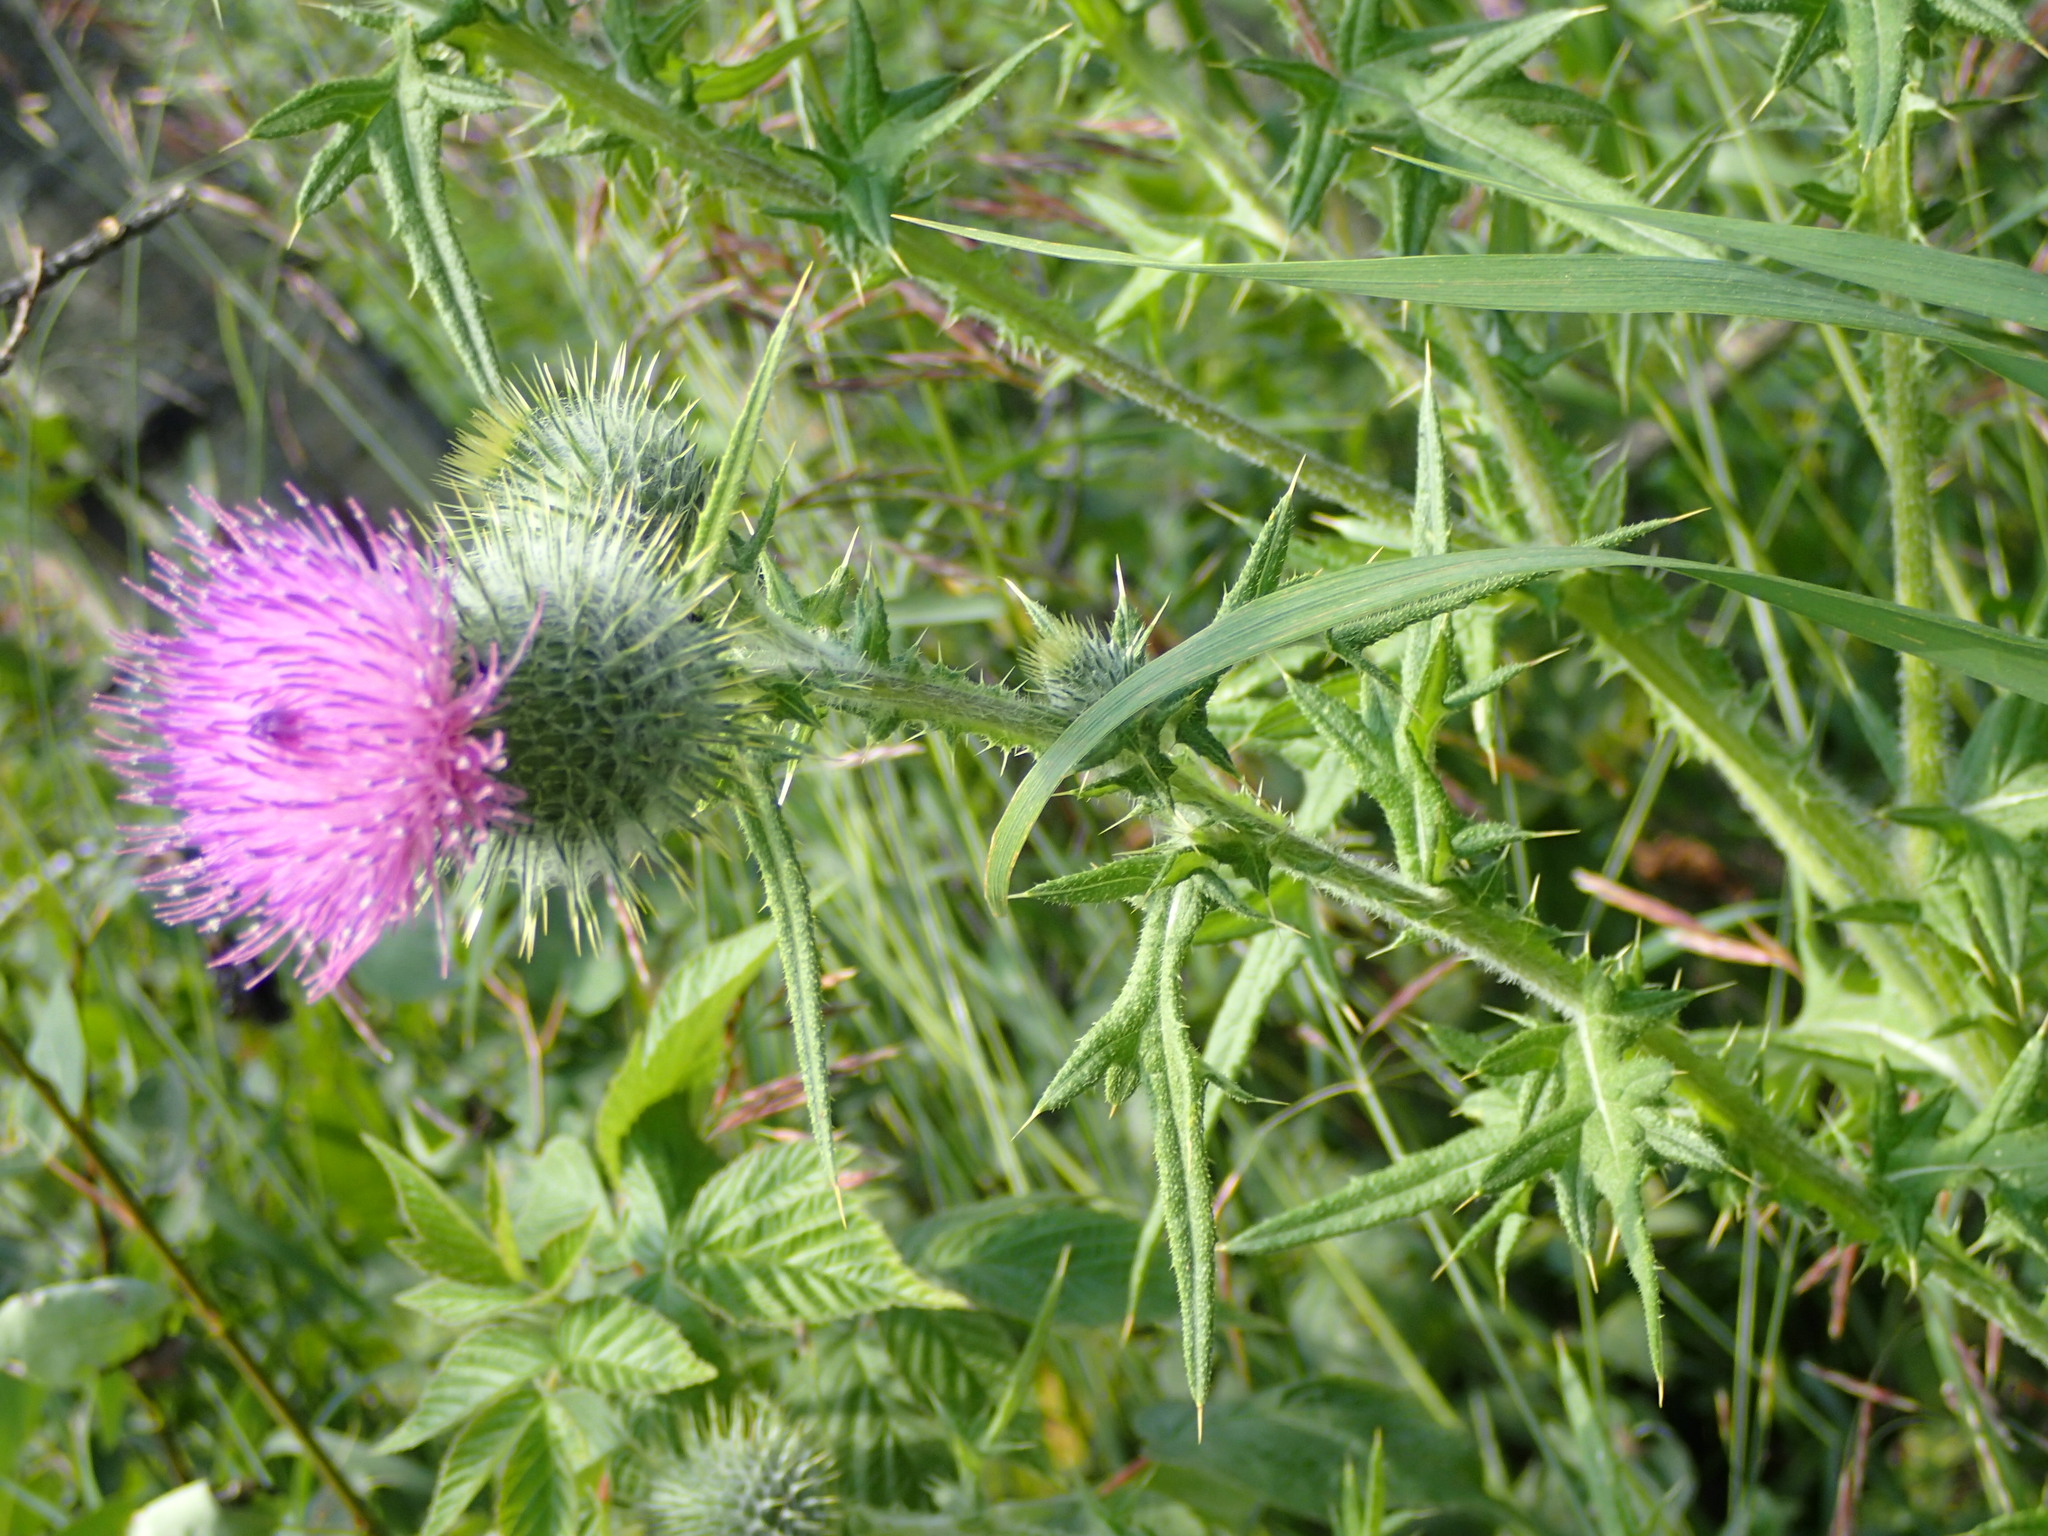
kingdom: Plantae
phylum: Tracheophyta
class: Magnoliopsida
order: Asterales
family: Asteraceae
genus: Cirsium
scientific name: Cirsium vulgare
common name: Bull thistle
